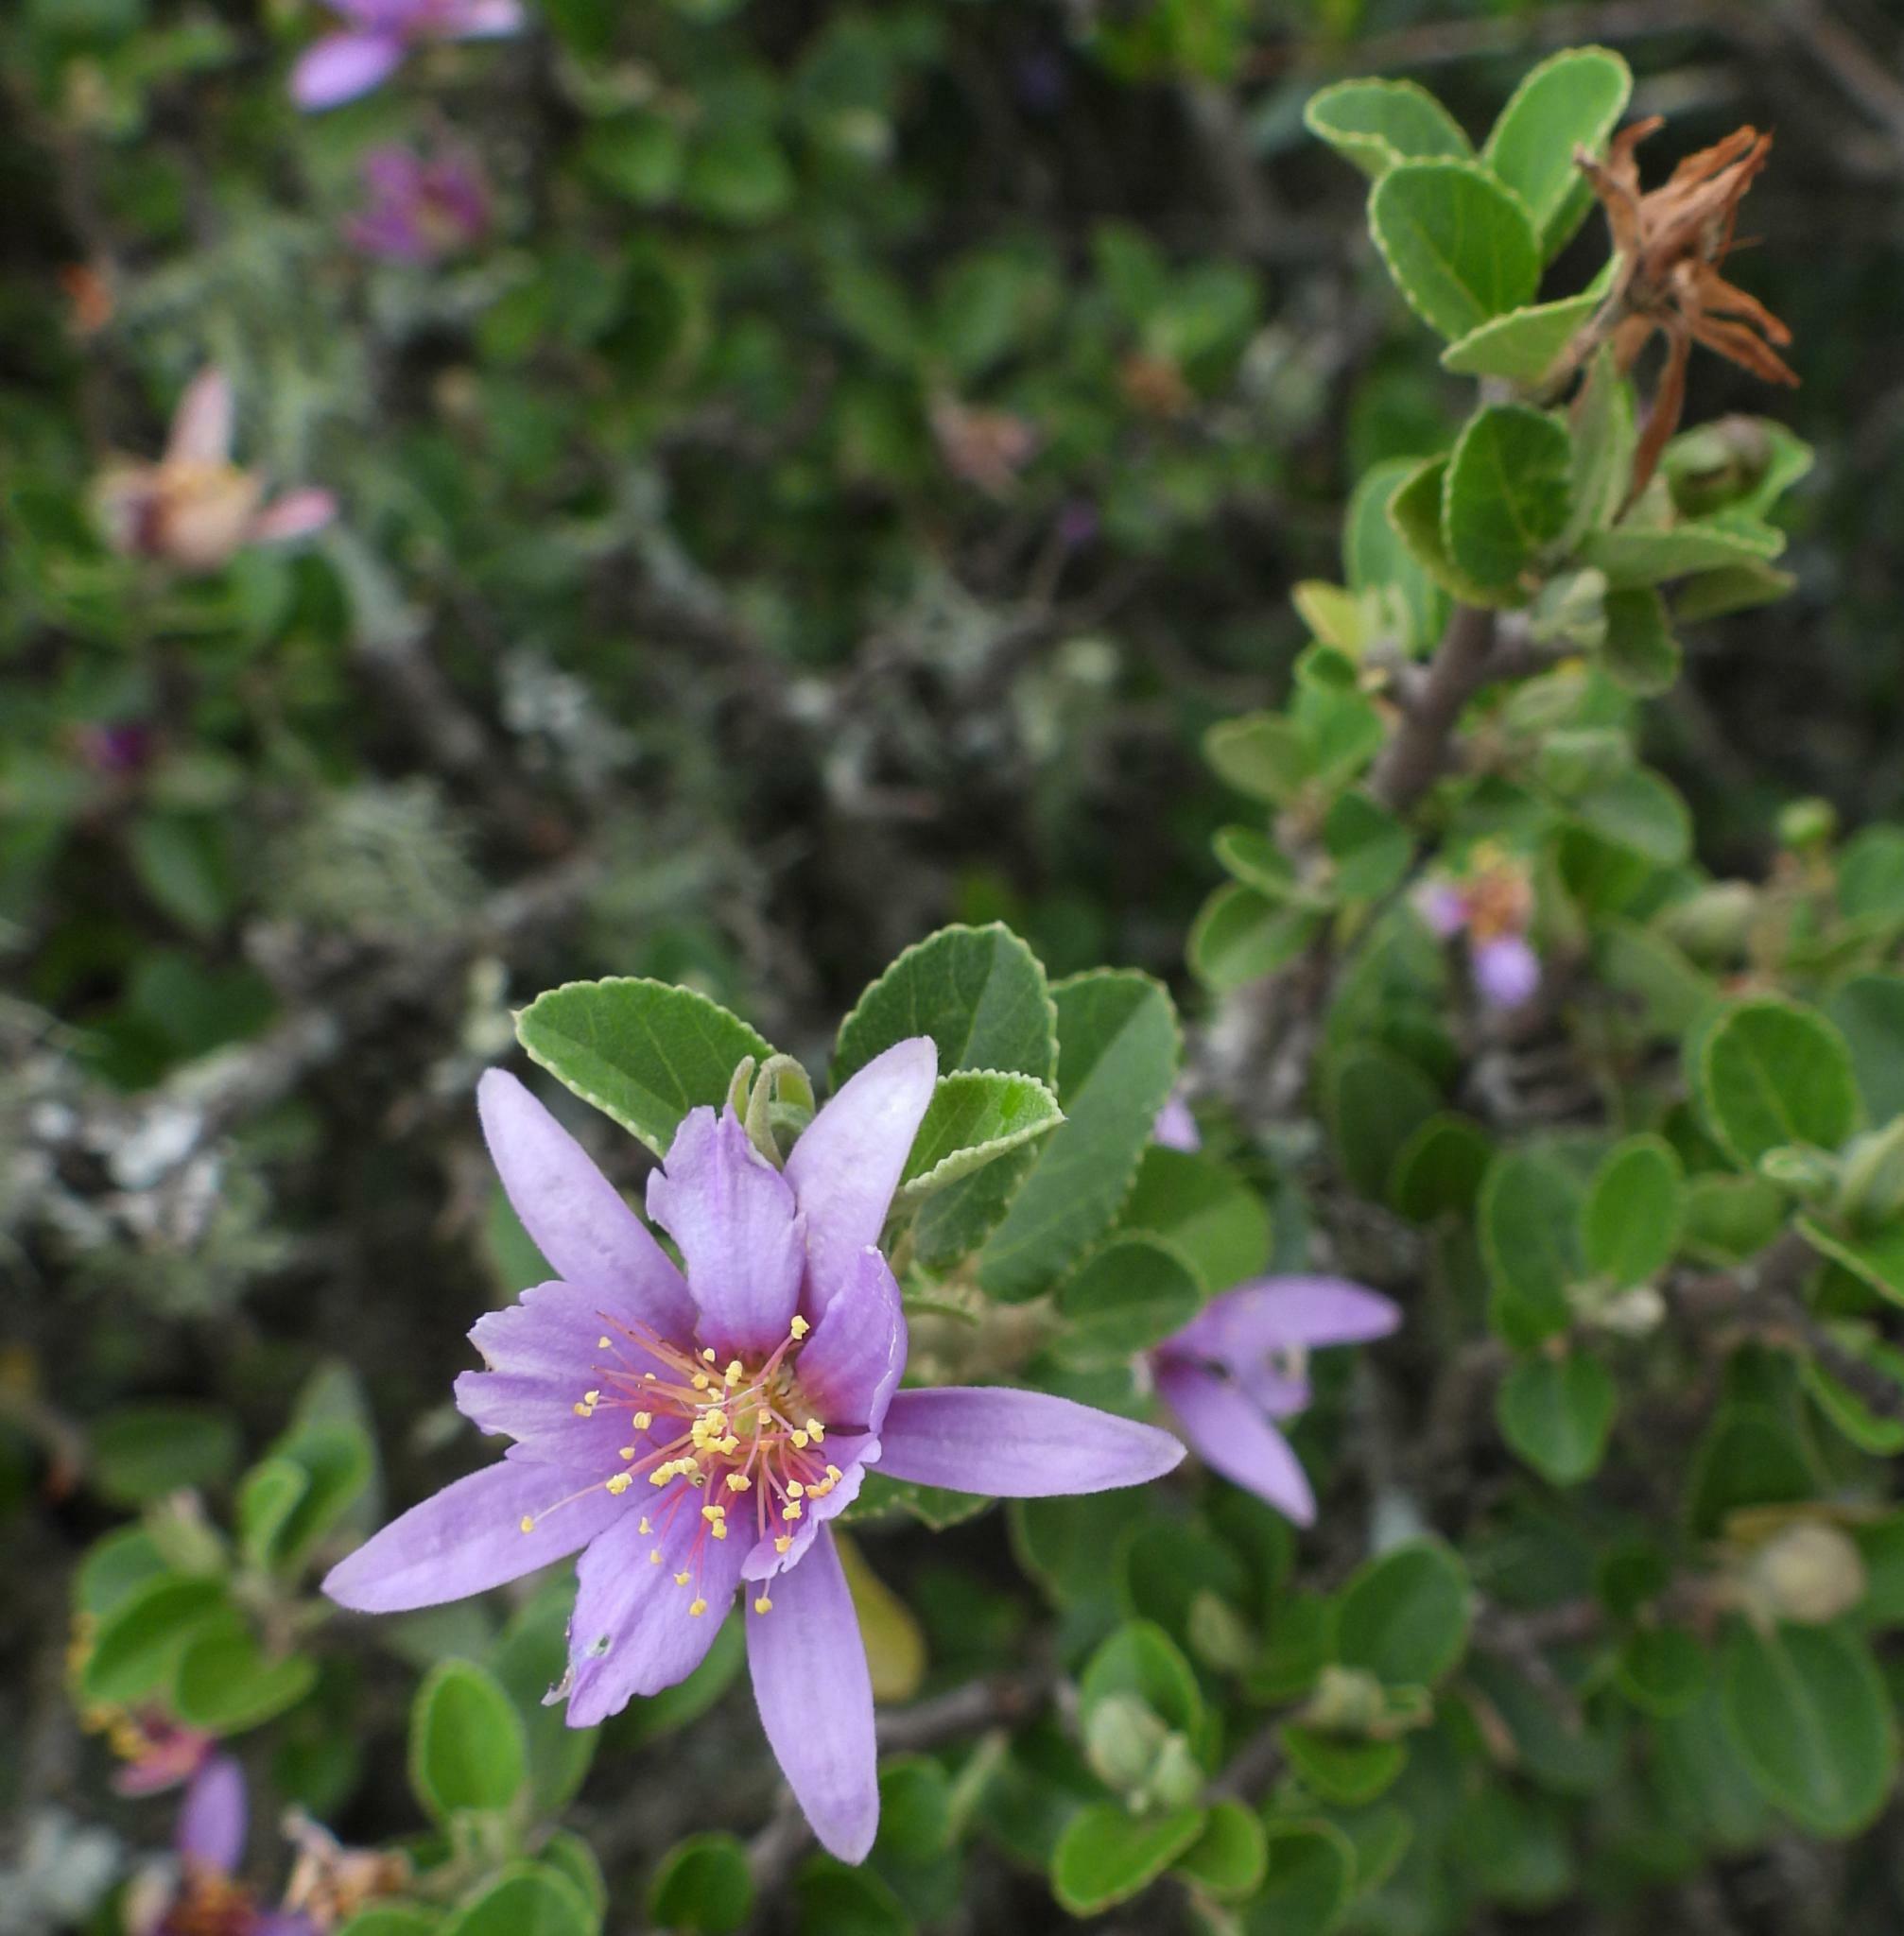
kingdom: Plantae
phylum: Tracheophyta
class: Magnoliopsida
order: Malvales
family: Malvaceae
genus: Grewia
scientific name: Grewia robusta
